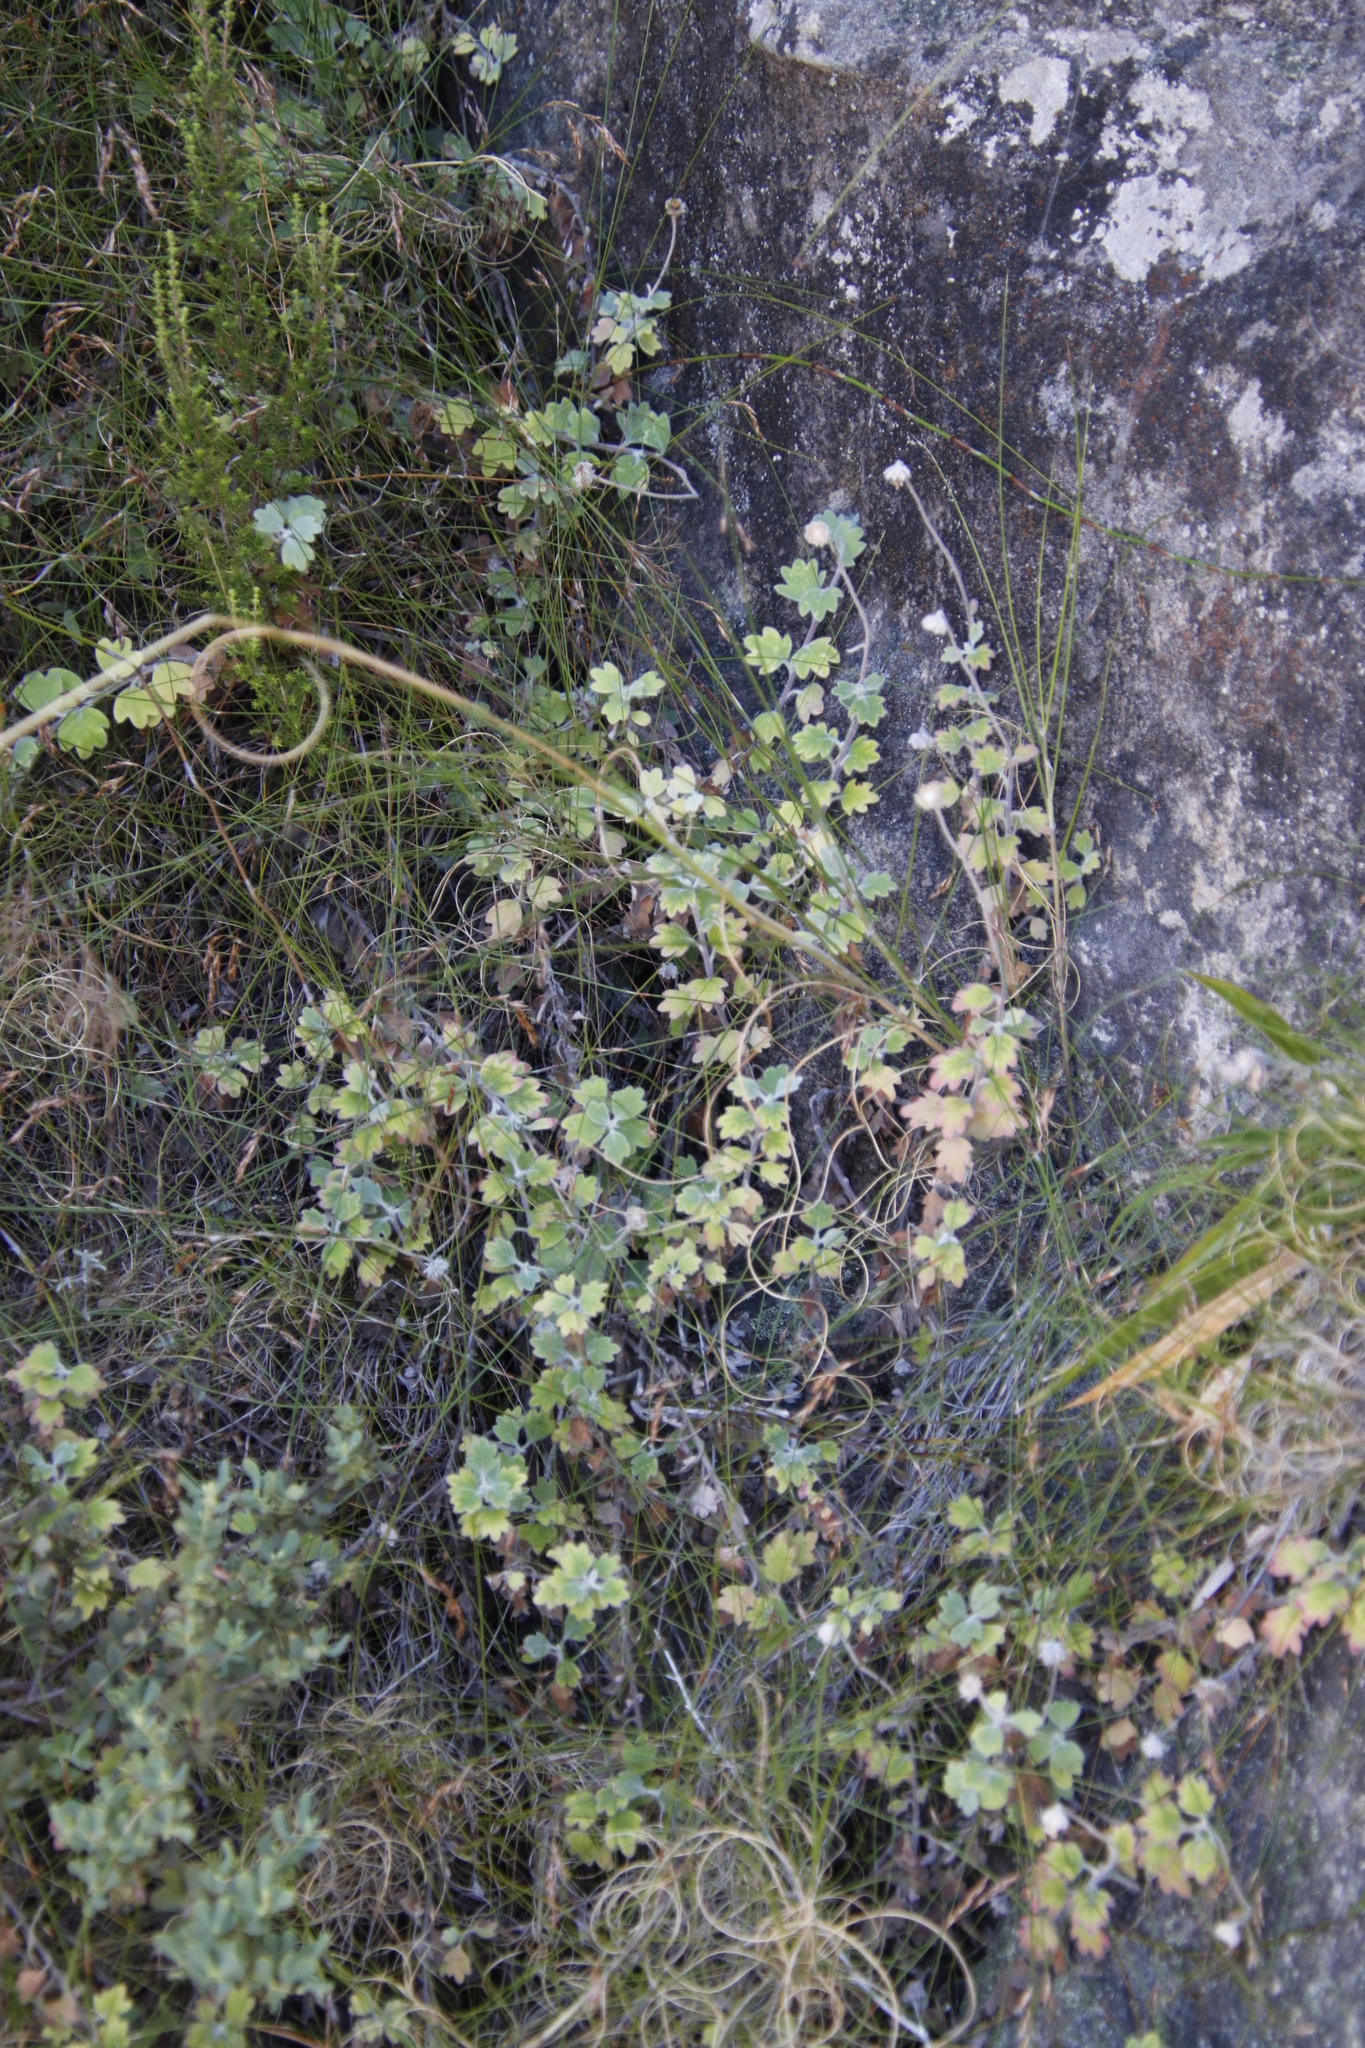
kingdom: Plantae
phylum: Tracheophyta
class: Magnoliopsida
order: Asterales
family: Asteraceae
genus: Lidbeckia
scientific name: Lidbeckia quinqueloba
